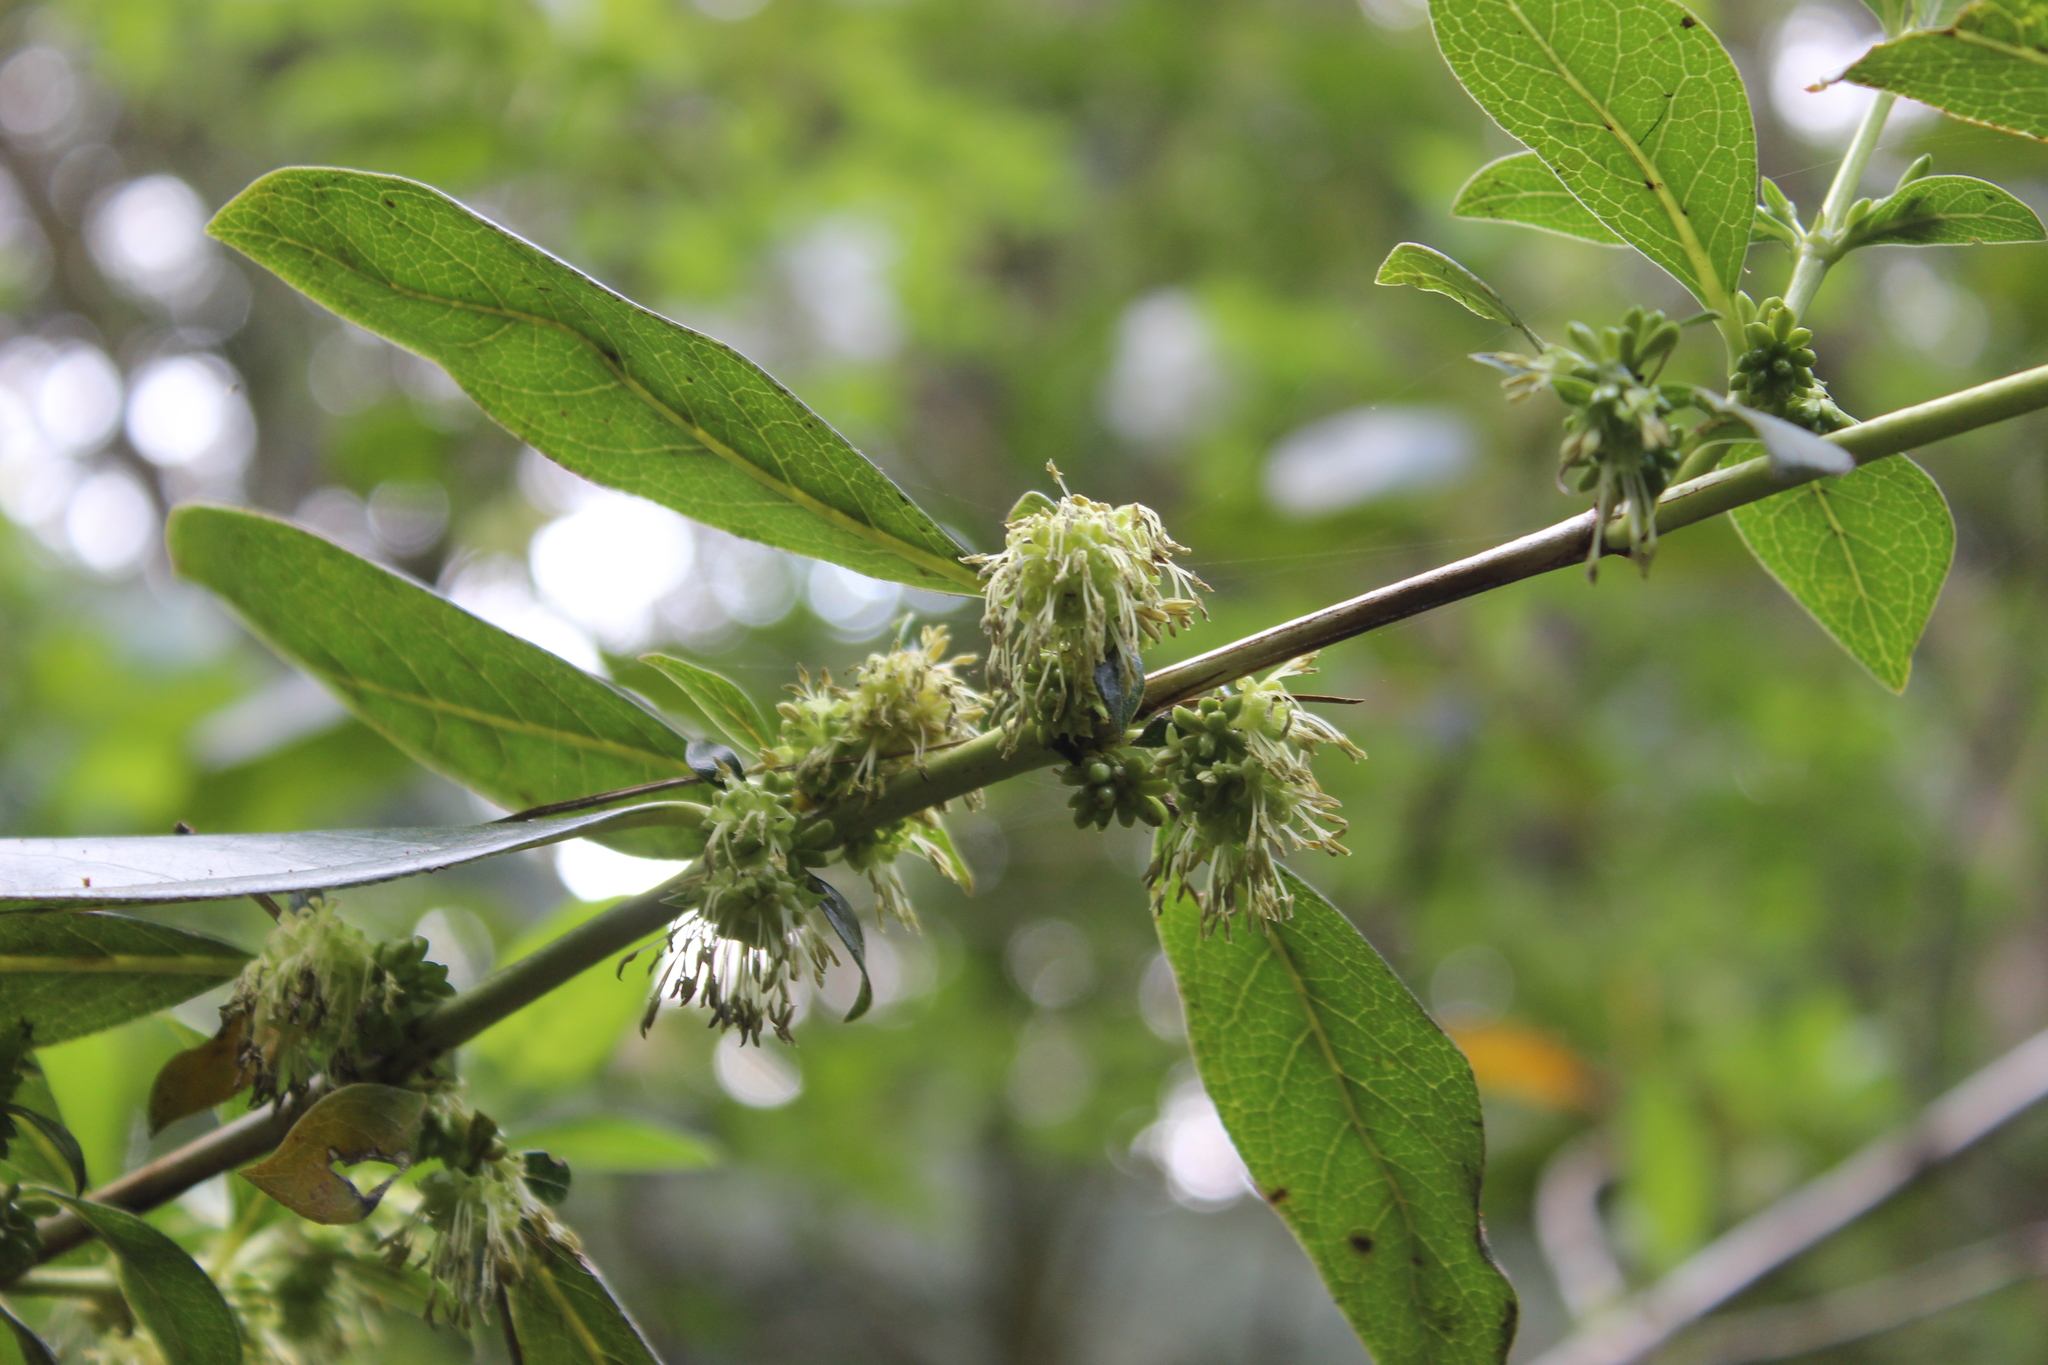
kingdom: Plantae
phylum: Tracheophyta
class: Magnoliopsida
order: Gentianales
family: Rubiaceae
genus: Coprosma
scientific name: Coprosma robusta
